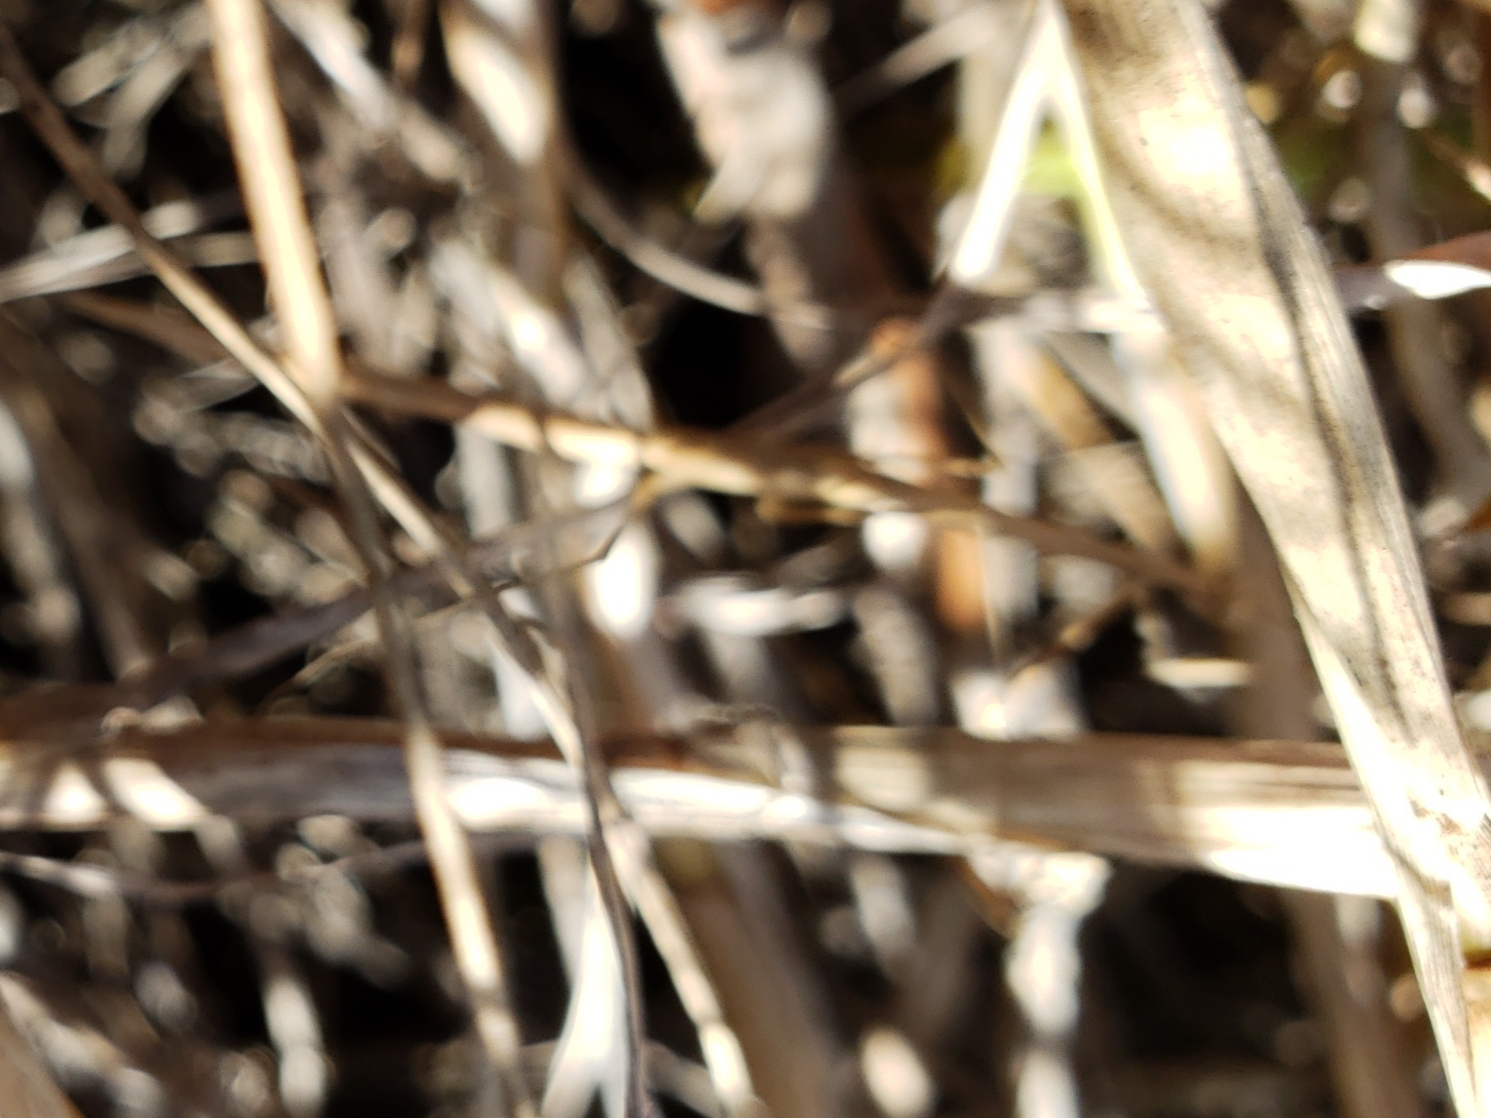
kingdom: Animalia
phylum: Arthropoda
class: Insecta
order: Mantodea
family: Thespidae
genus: Thesprotia
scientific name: Thesprotia graminis
